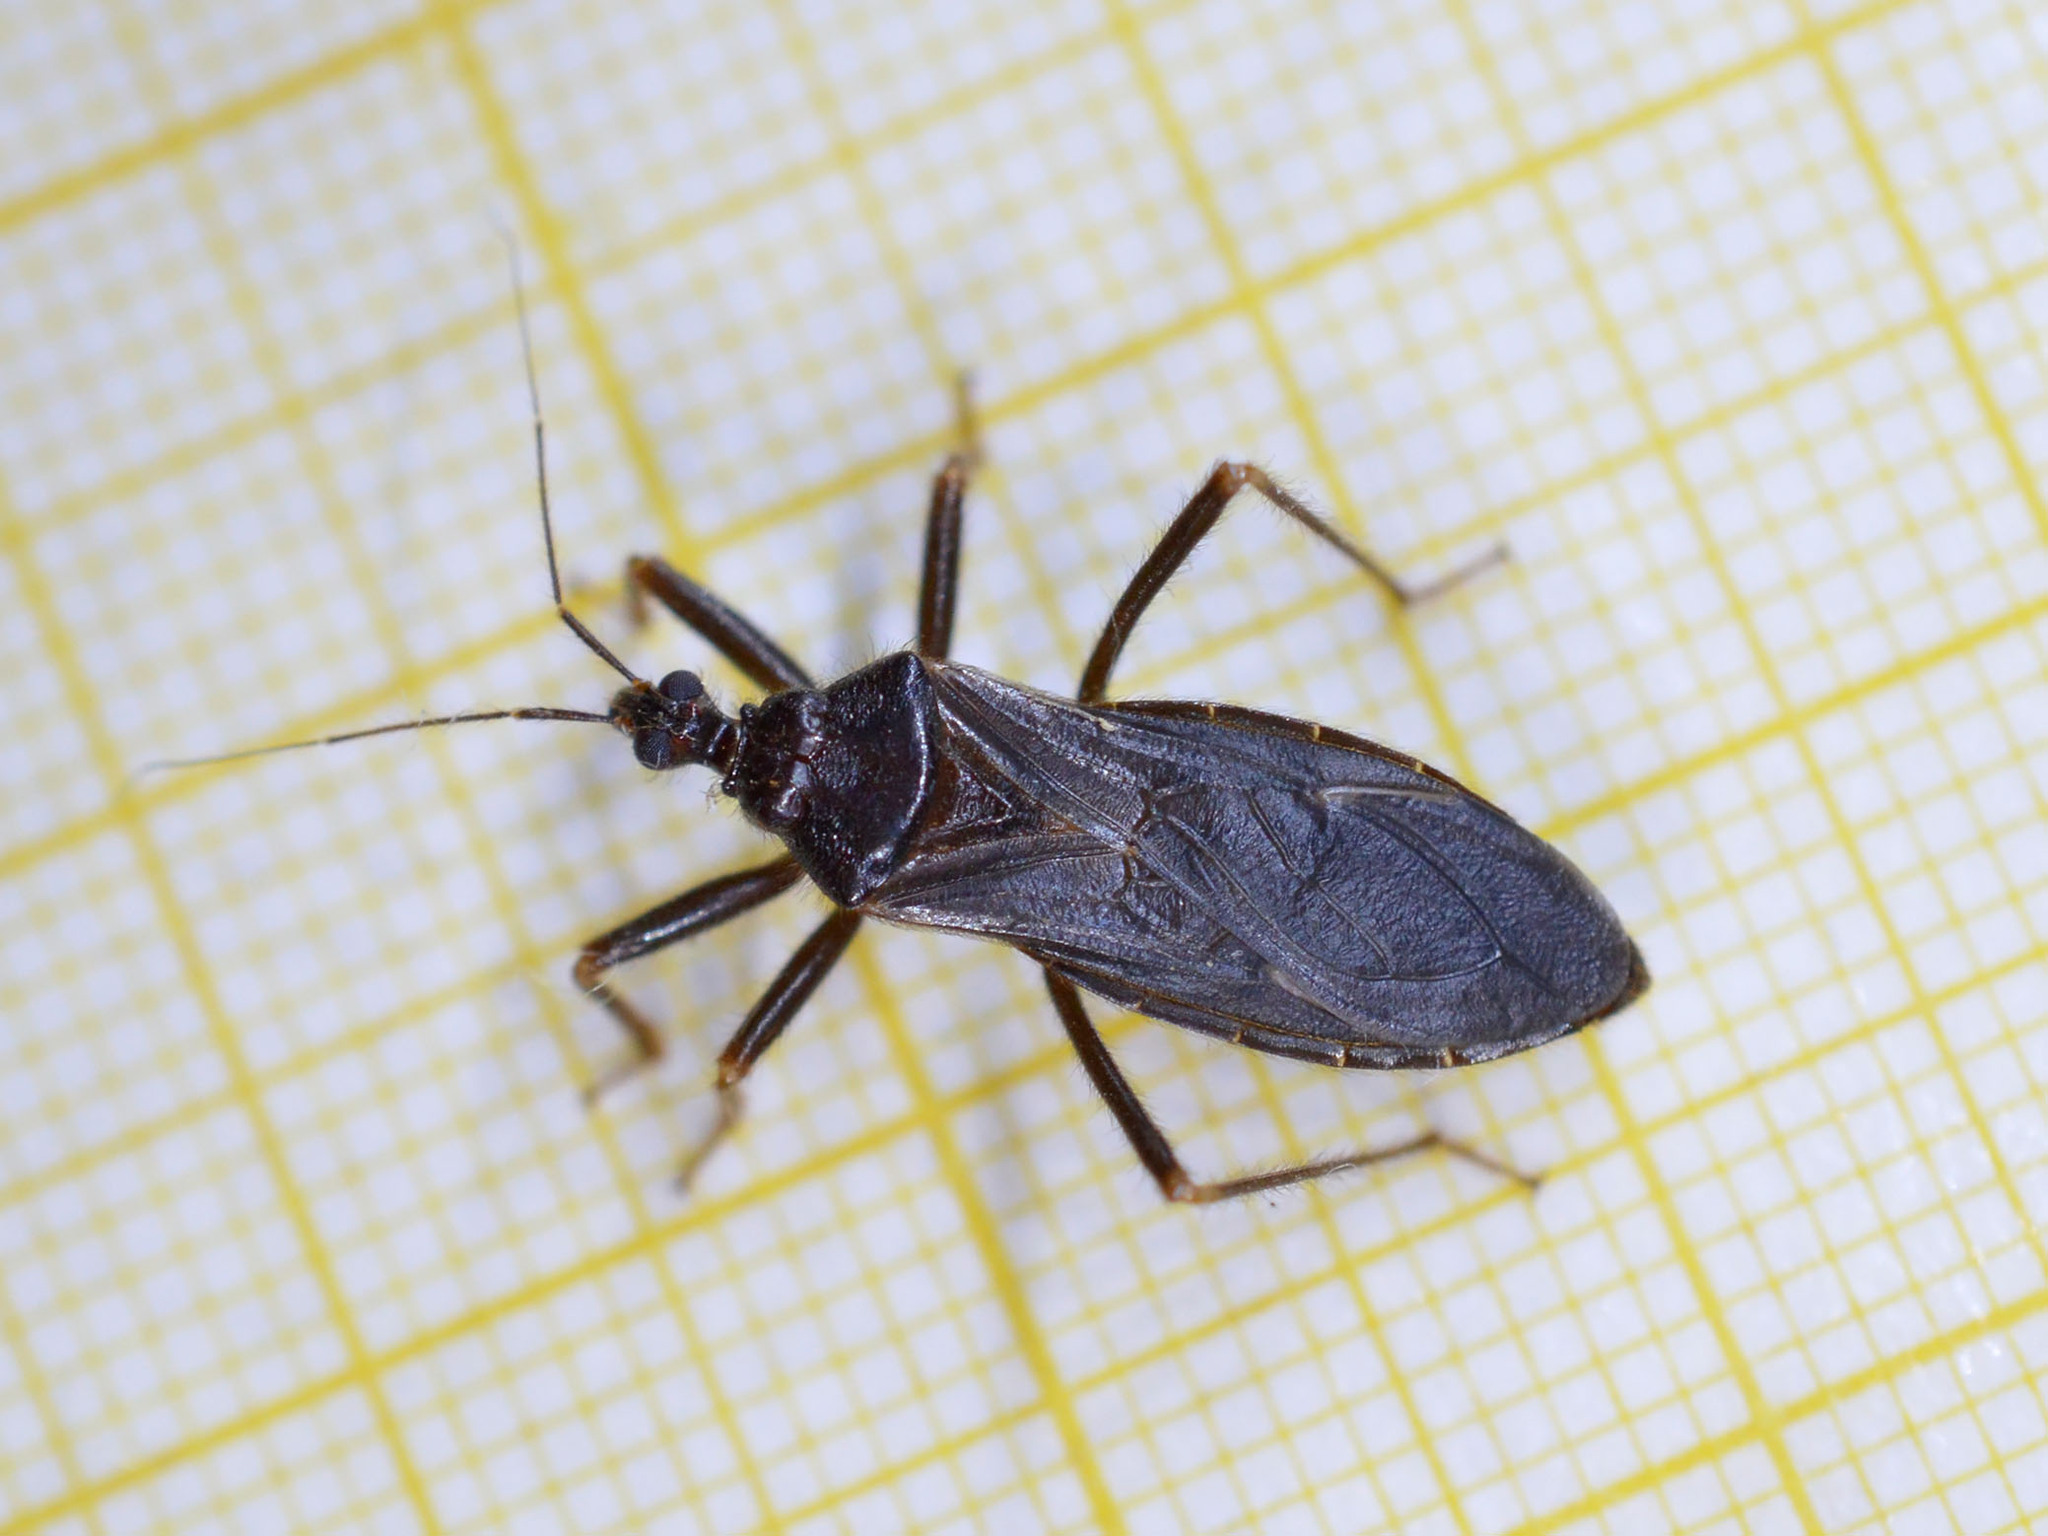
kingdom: Animalia
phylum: Arthropoda
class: Insecta
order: Hemiptera
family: Reduviidae
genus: Reduvius
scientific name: Reduvius personatus
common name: Masked hunter
